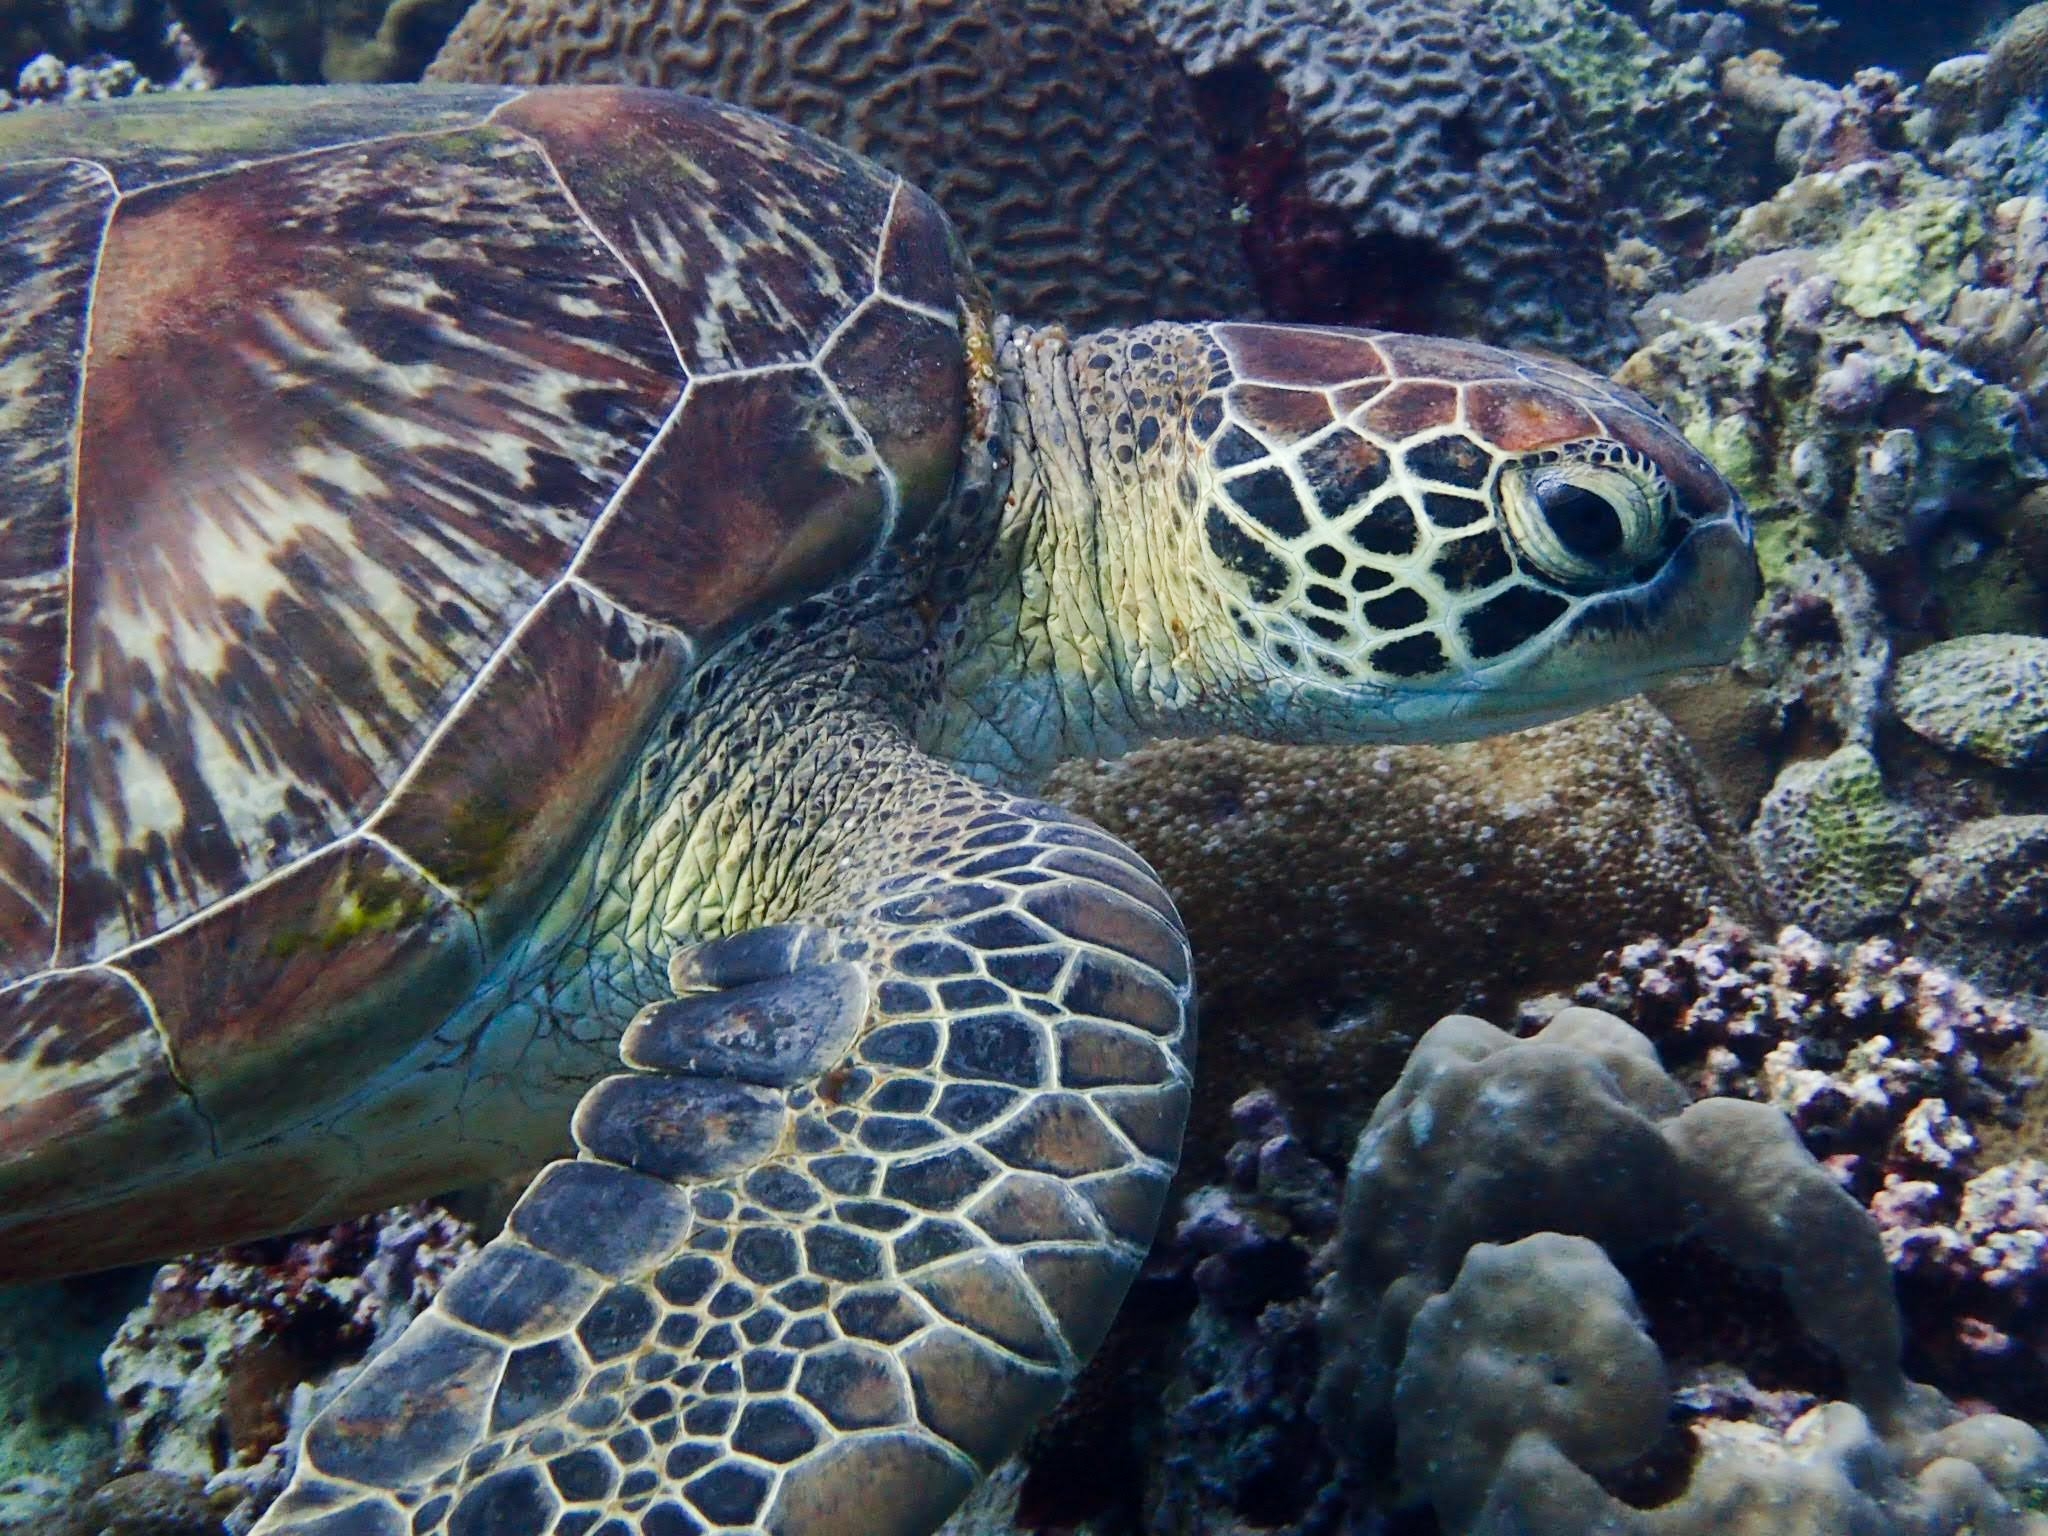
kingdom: Animalia
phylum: Chordata
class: Testudines
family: Cheloniidae
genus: Chelonia
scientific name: Chelonia mydas
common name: Green turtle
